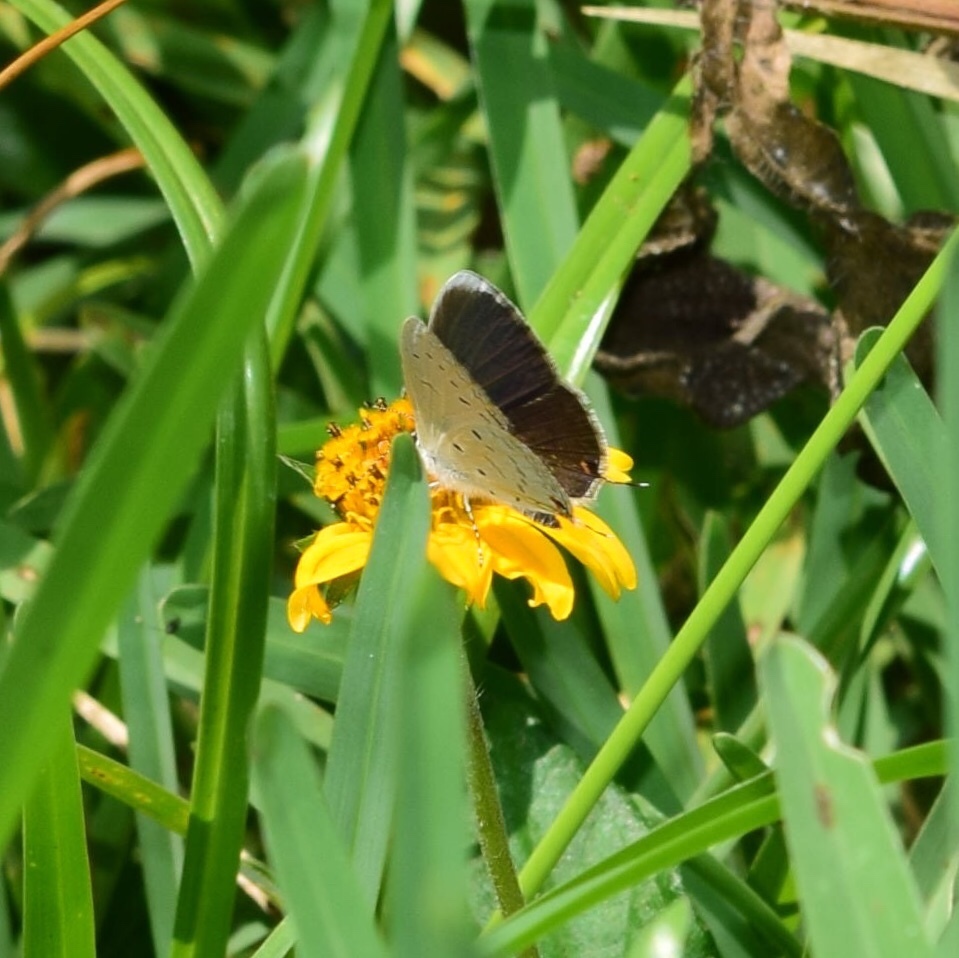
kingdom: Animalia
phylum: Arthropoda
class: Insecta
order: Lepidoptera
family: Lycaenidae
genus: Eicochrysops
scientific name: Eicochrysops hippocrates
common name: White-tipped blue
